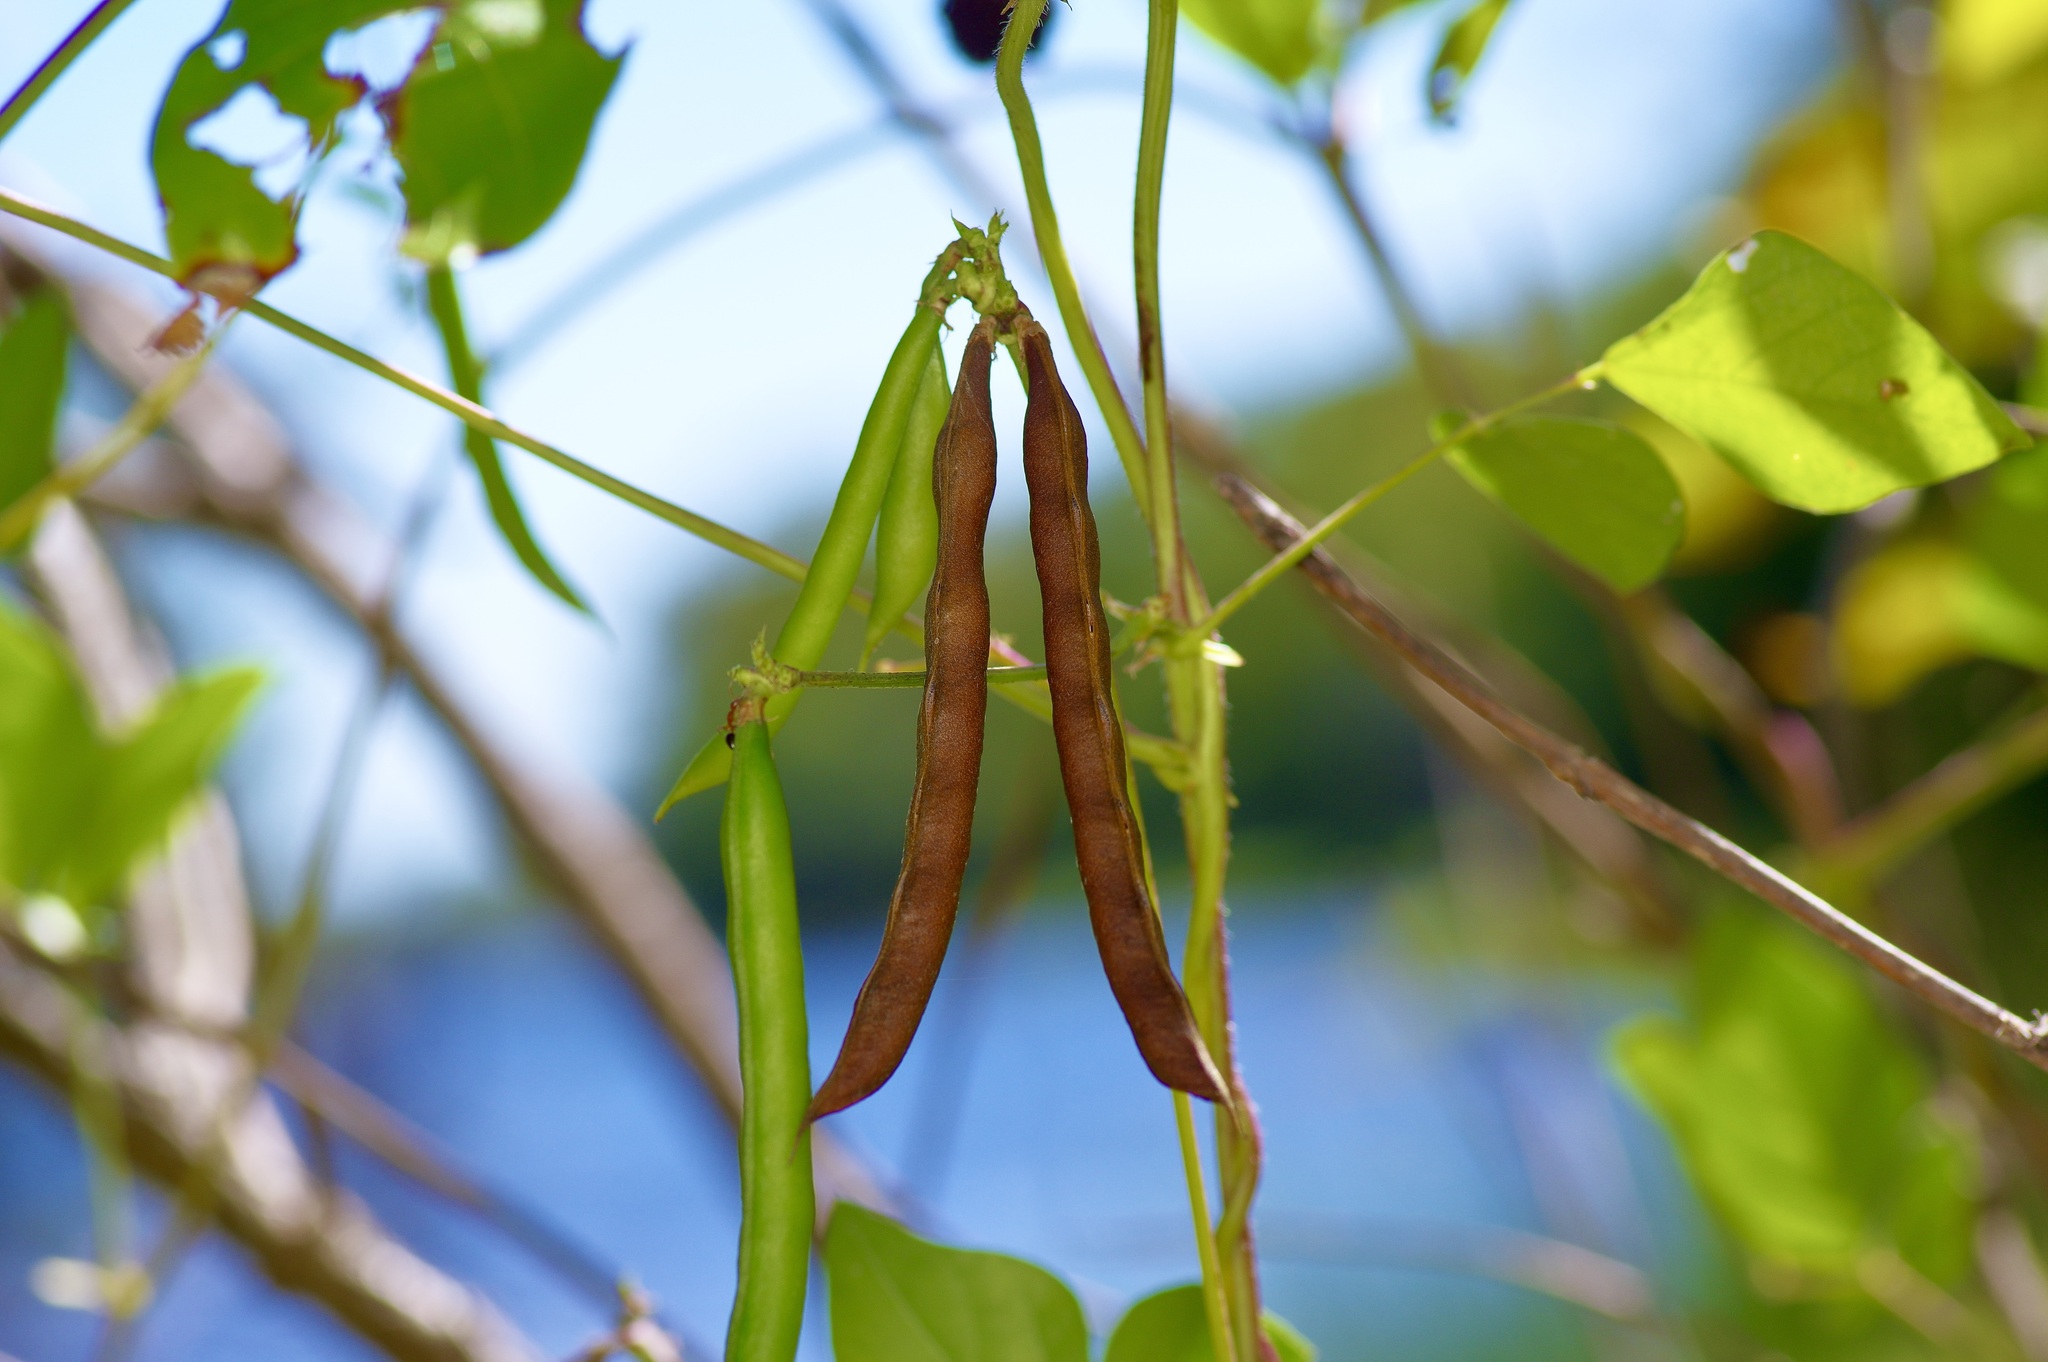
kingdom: Plantae
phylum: Tracheophyta
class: Magnoliopsida
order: Fabales
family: Fabaceae
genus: Strophostyles
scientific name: Strophostyles helvola
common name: Trailing wild bean
